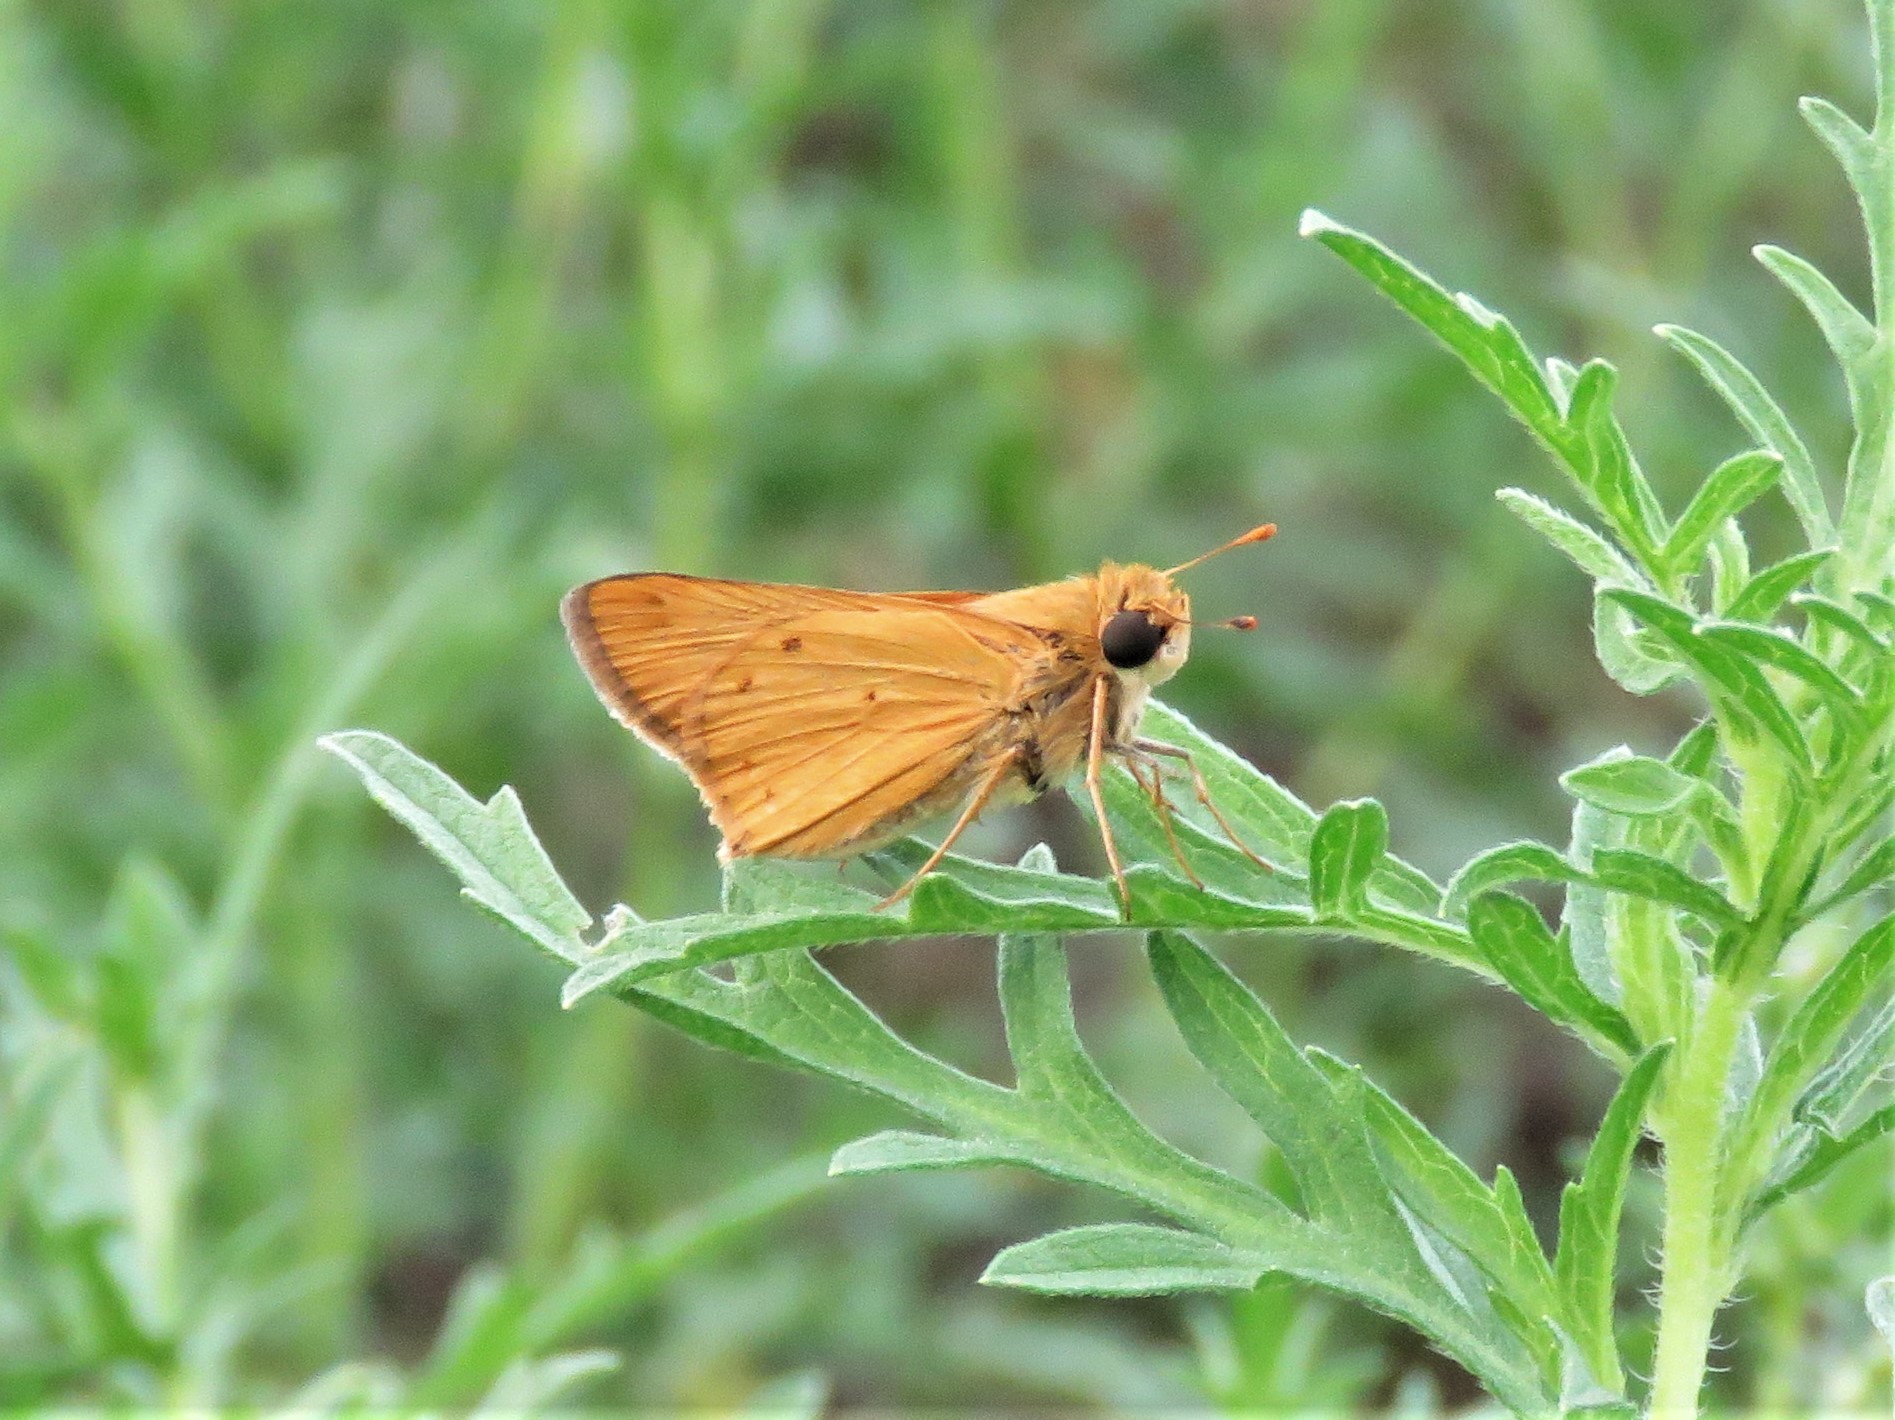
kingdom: Animalia
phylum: Arthropoda
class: Insecta
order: Lepidoptera
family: Hesperiidae
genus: Hylephila
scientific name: Hylephila phyleus
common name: Fiery skipper
